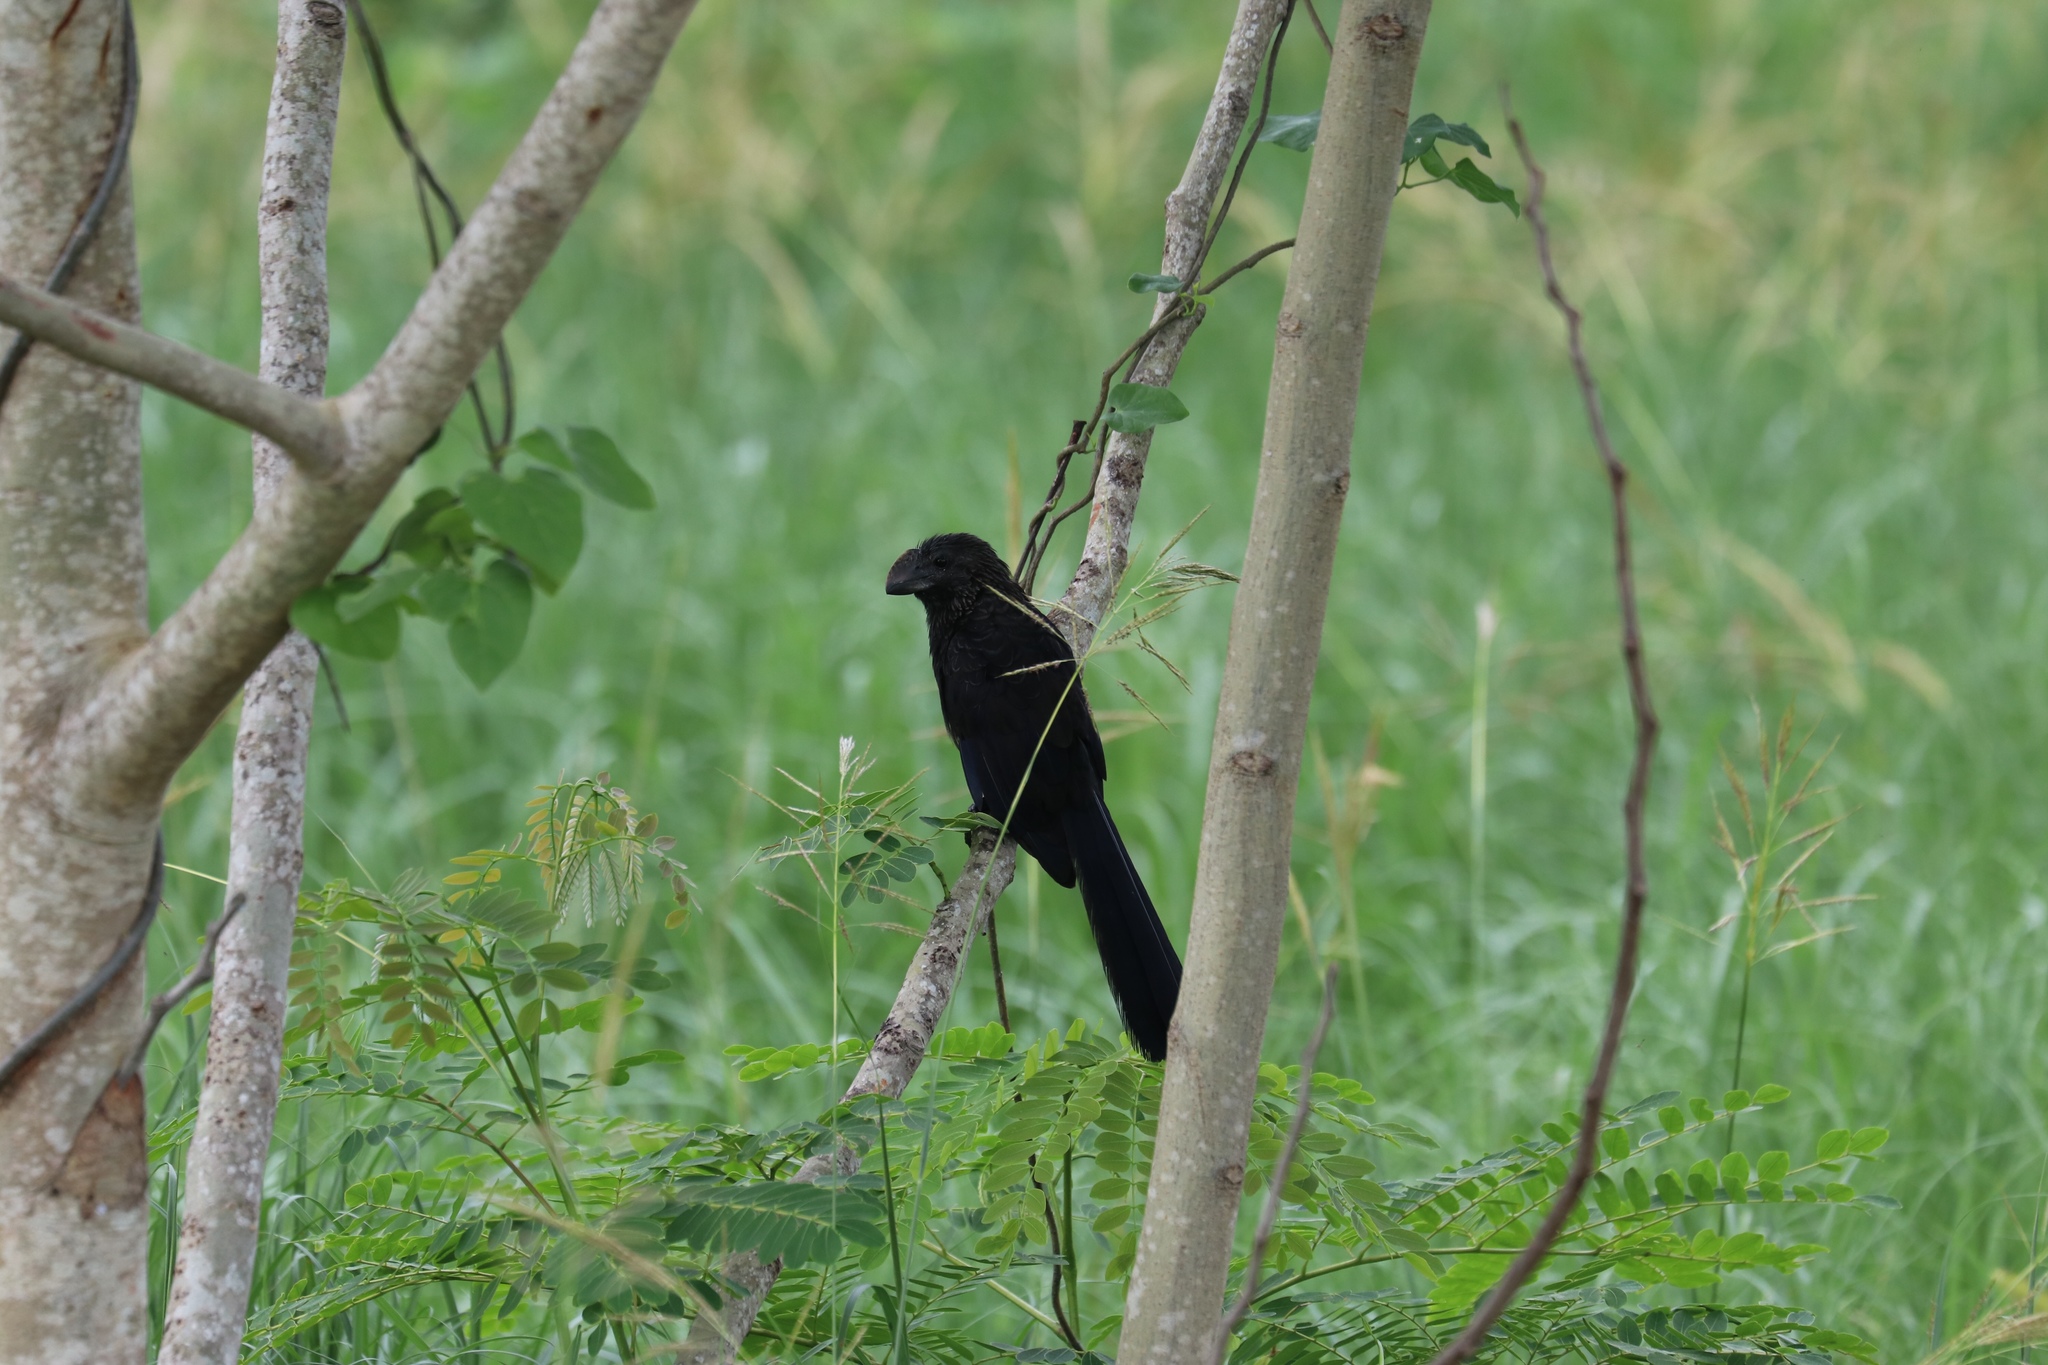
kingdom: Animalia
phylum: Chordata
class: Aves
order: Cuculiformes
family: Cuculidae
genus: Crotophaga
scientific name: Crotophaga ani
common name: Smooth-billed ani
